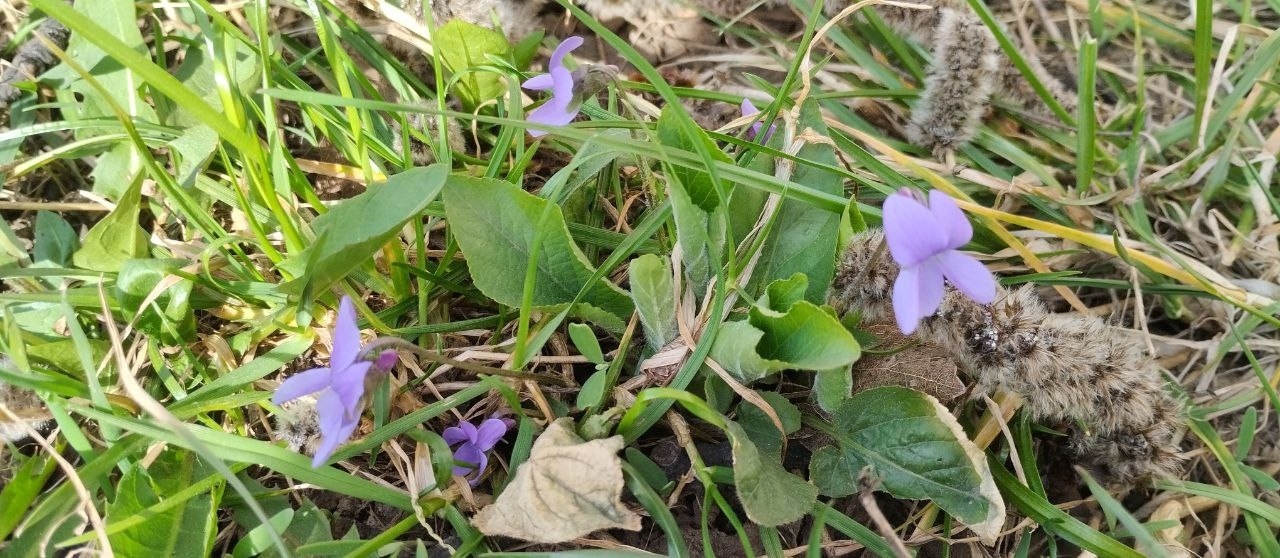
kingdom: Plantae
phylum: Tracheophyta
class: Magnoliopsida
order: Malpighiales
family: Violaceae
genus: Viola
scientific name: Viola hirta
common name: Hairy violet
